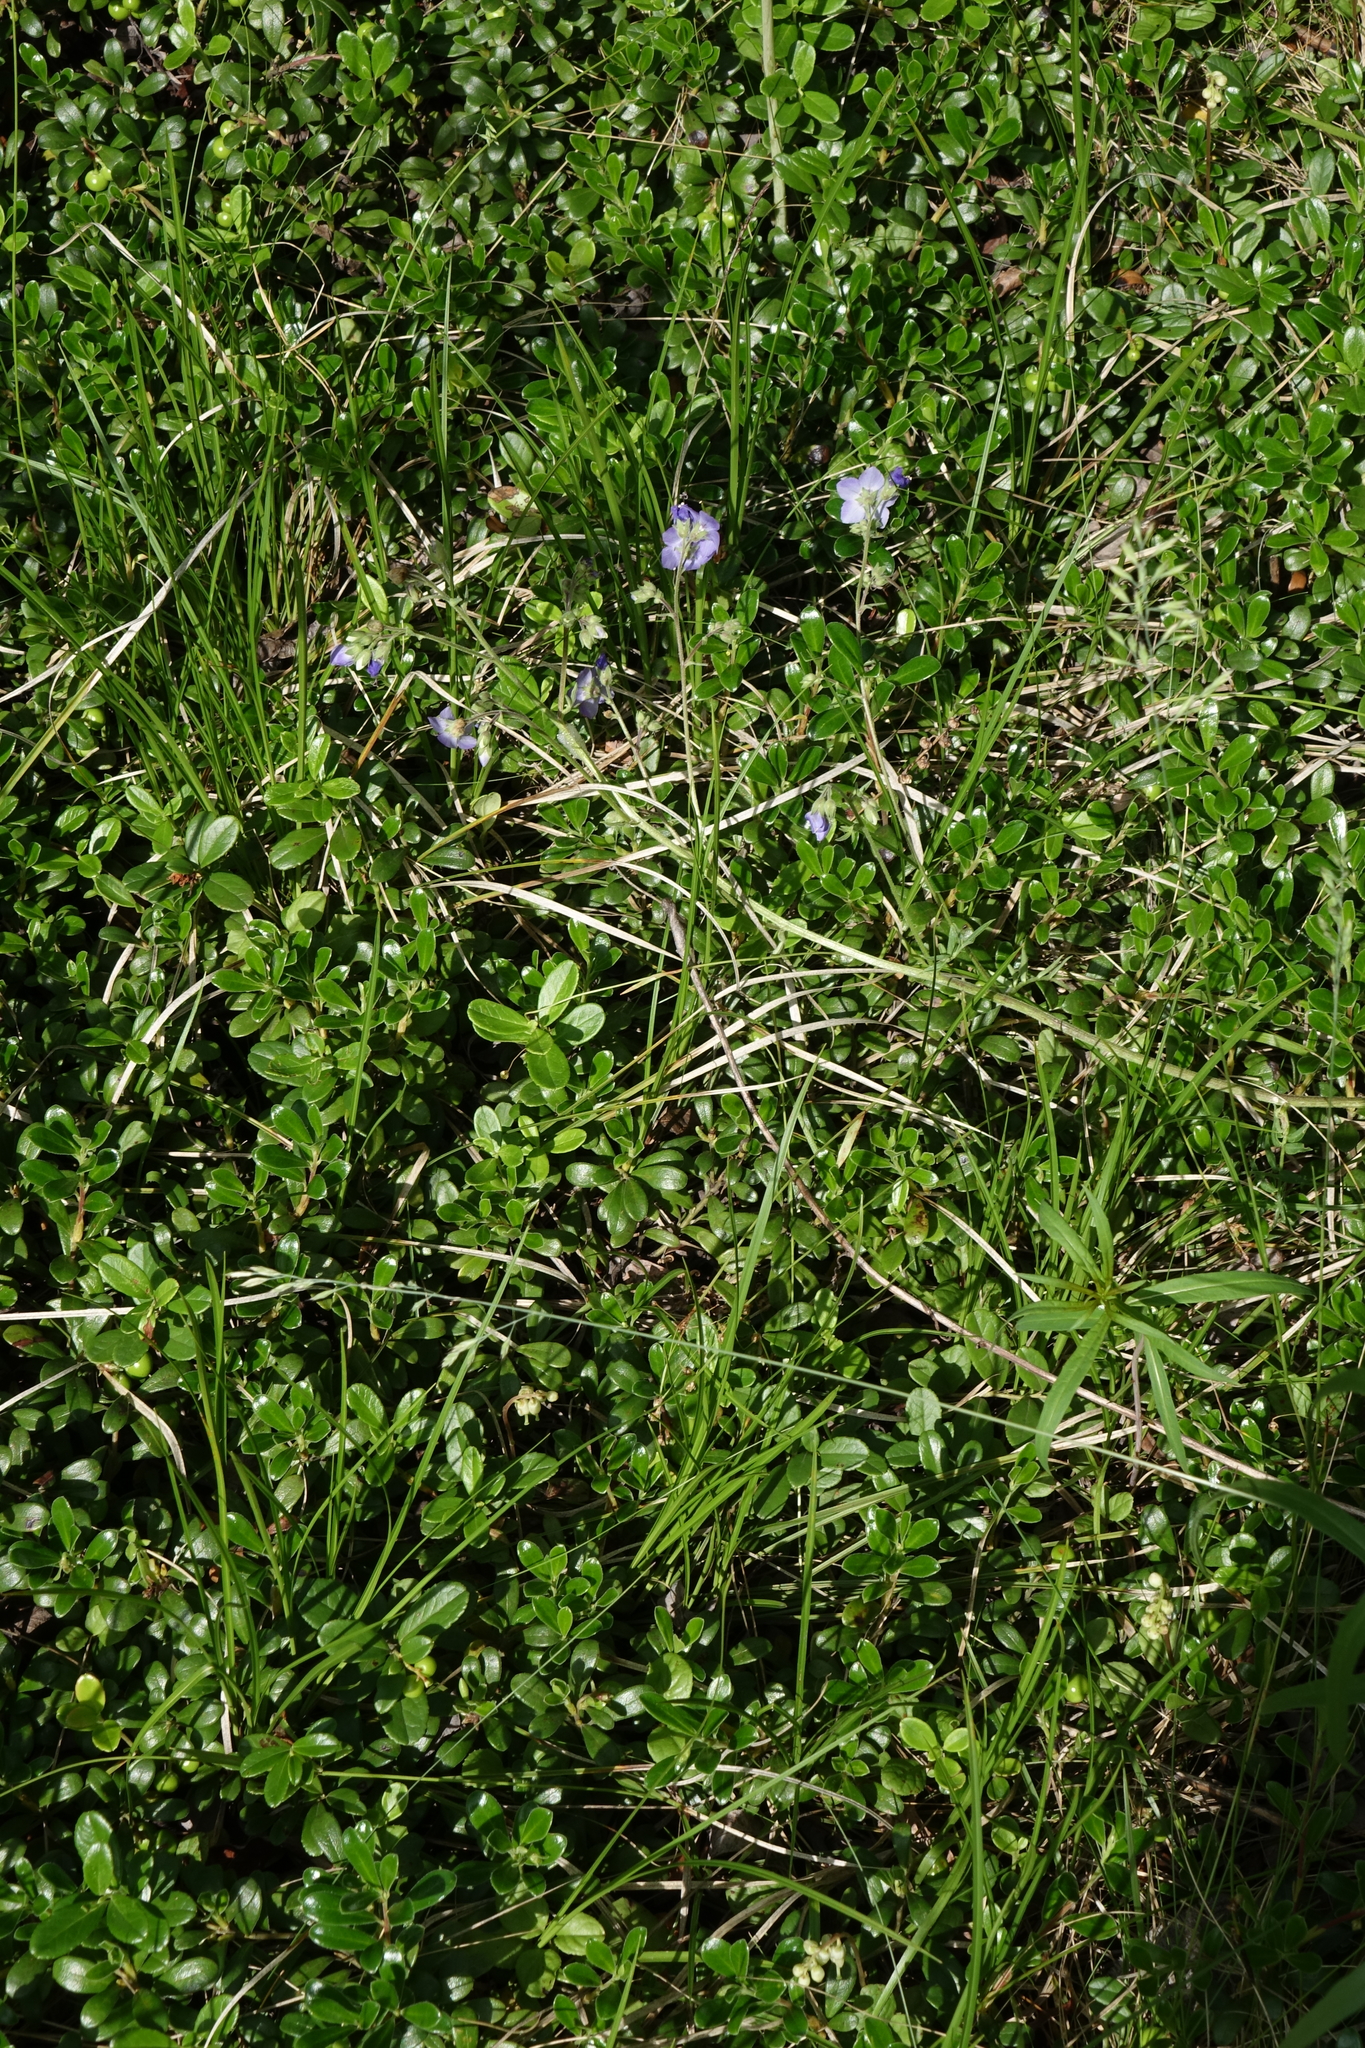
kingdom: Plantae
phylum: Tracheophyta
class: Magnoliopsida
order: Ericales
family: Ericaceae
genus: Vaccinium
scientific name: Vaccinium vitis-idaea
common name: Cowberry
